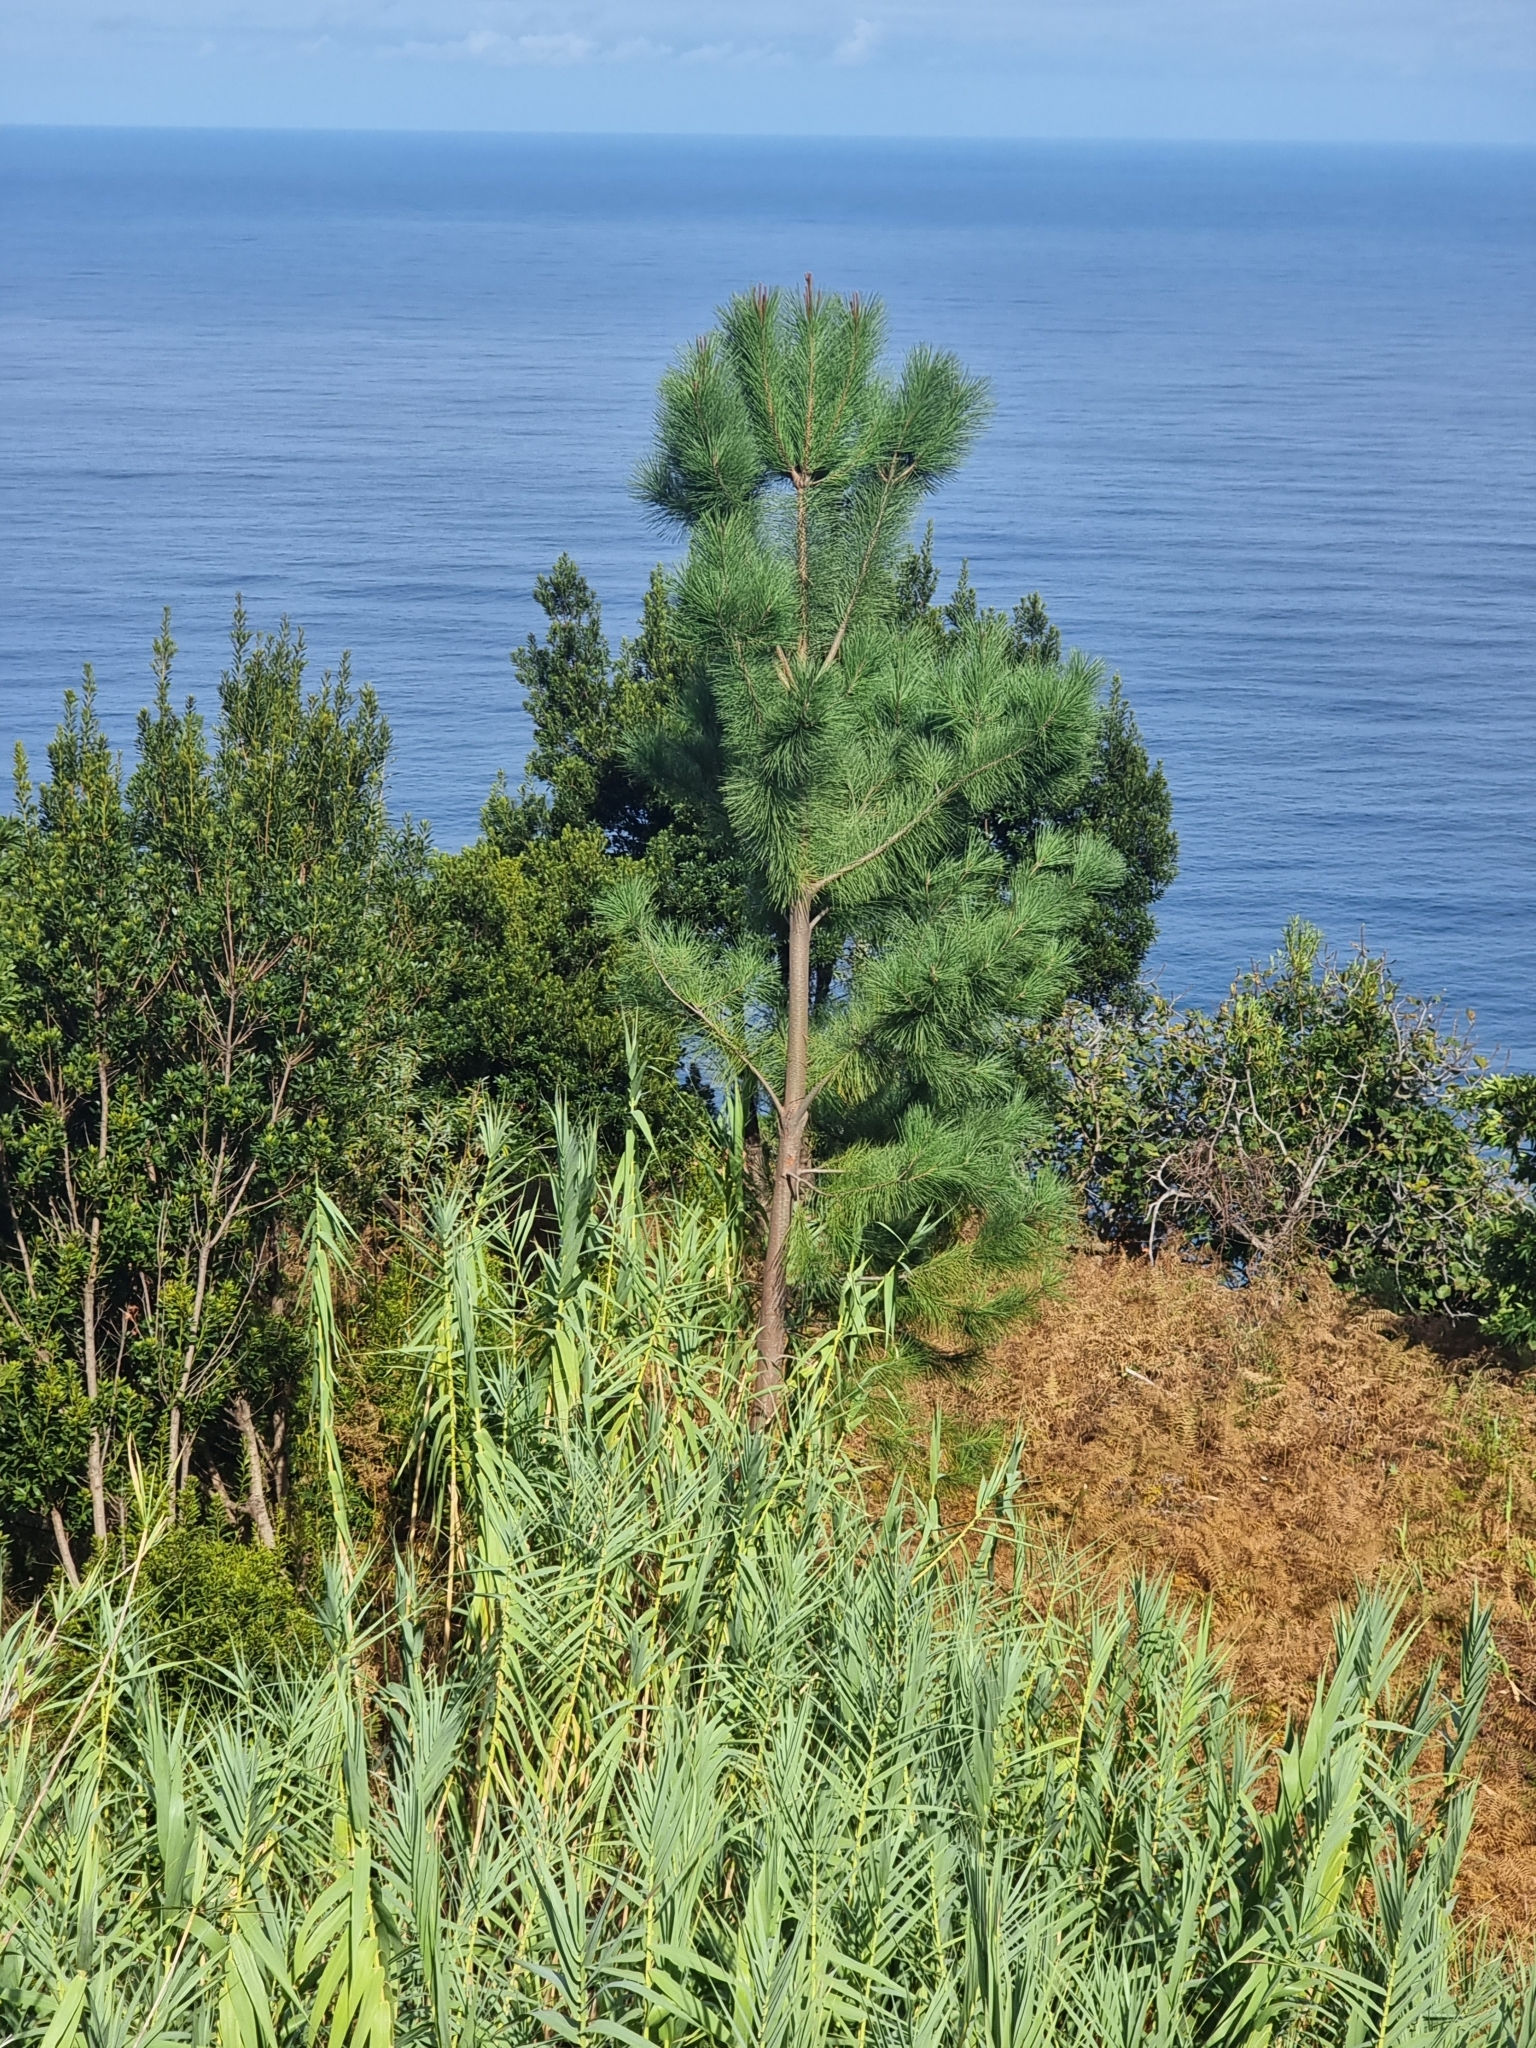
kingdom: Plantae
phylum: Tracheophyta
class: Pinopsida
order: Pinales
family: Pinaceae
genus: Pinus
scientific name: Pinus pinaster
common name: Maritime pine
